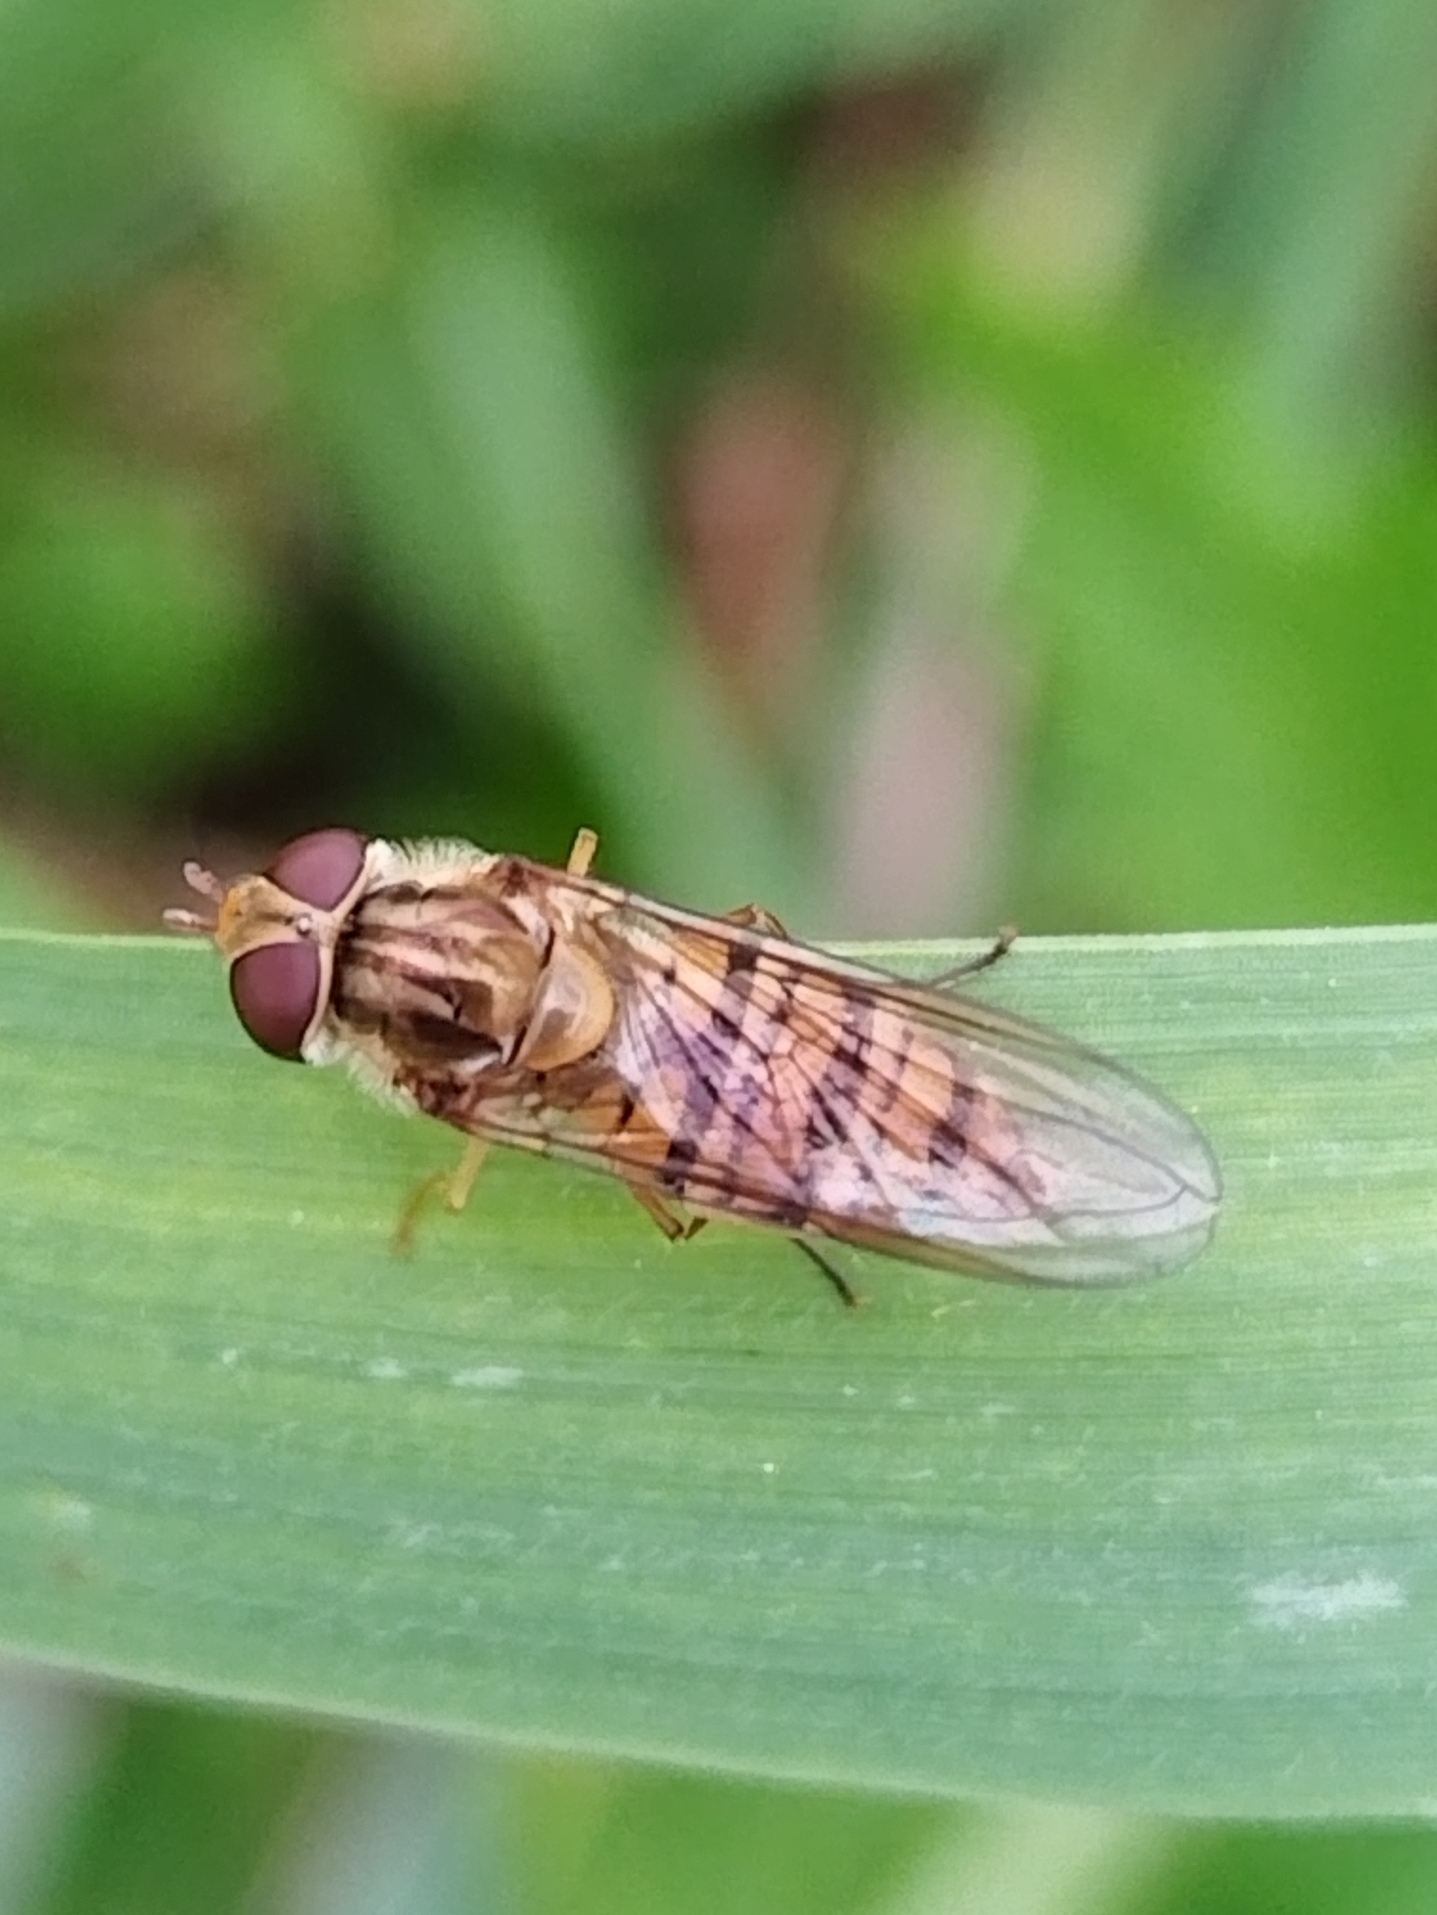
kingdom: Animalia
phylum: Arthropoda
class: Insecta
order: Diptera
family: Syrphidae
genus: Episyrphus
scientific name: Episyrphus balteatus
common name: Marmalade hoverfly
